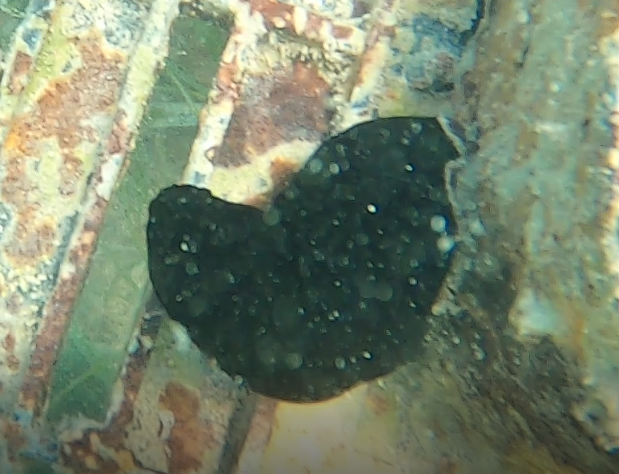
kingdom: Animalia
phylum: Chordata
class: Ascidiacea
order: Phlebobranchia
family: Ascidiidae
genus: Phallusia
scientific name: Phallusia nigra
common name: Black tunicate
